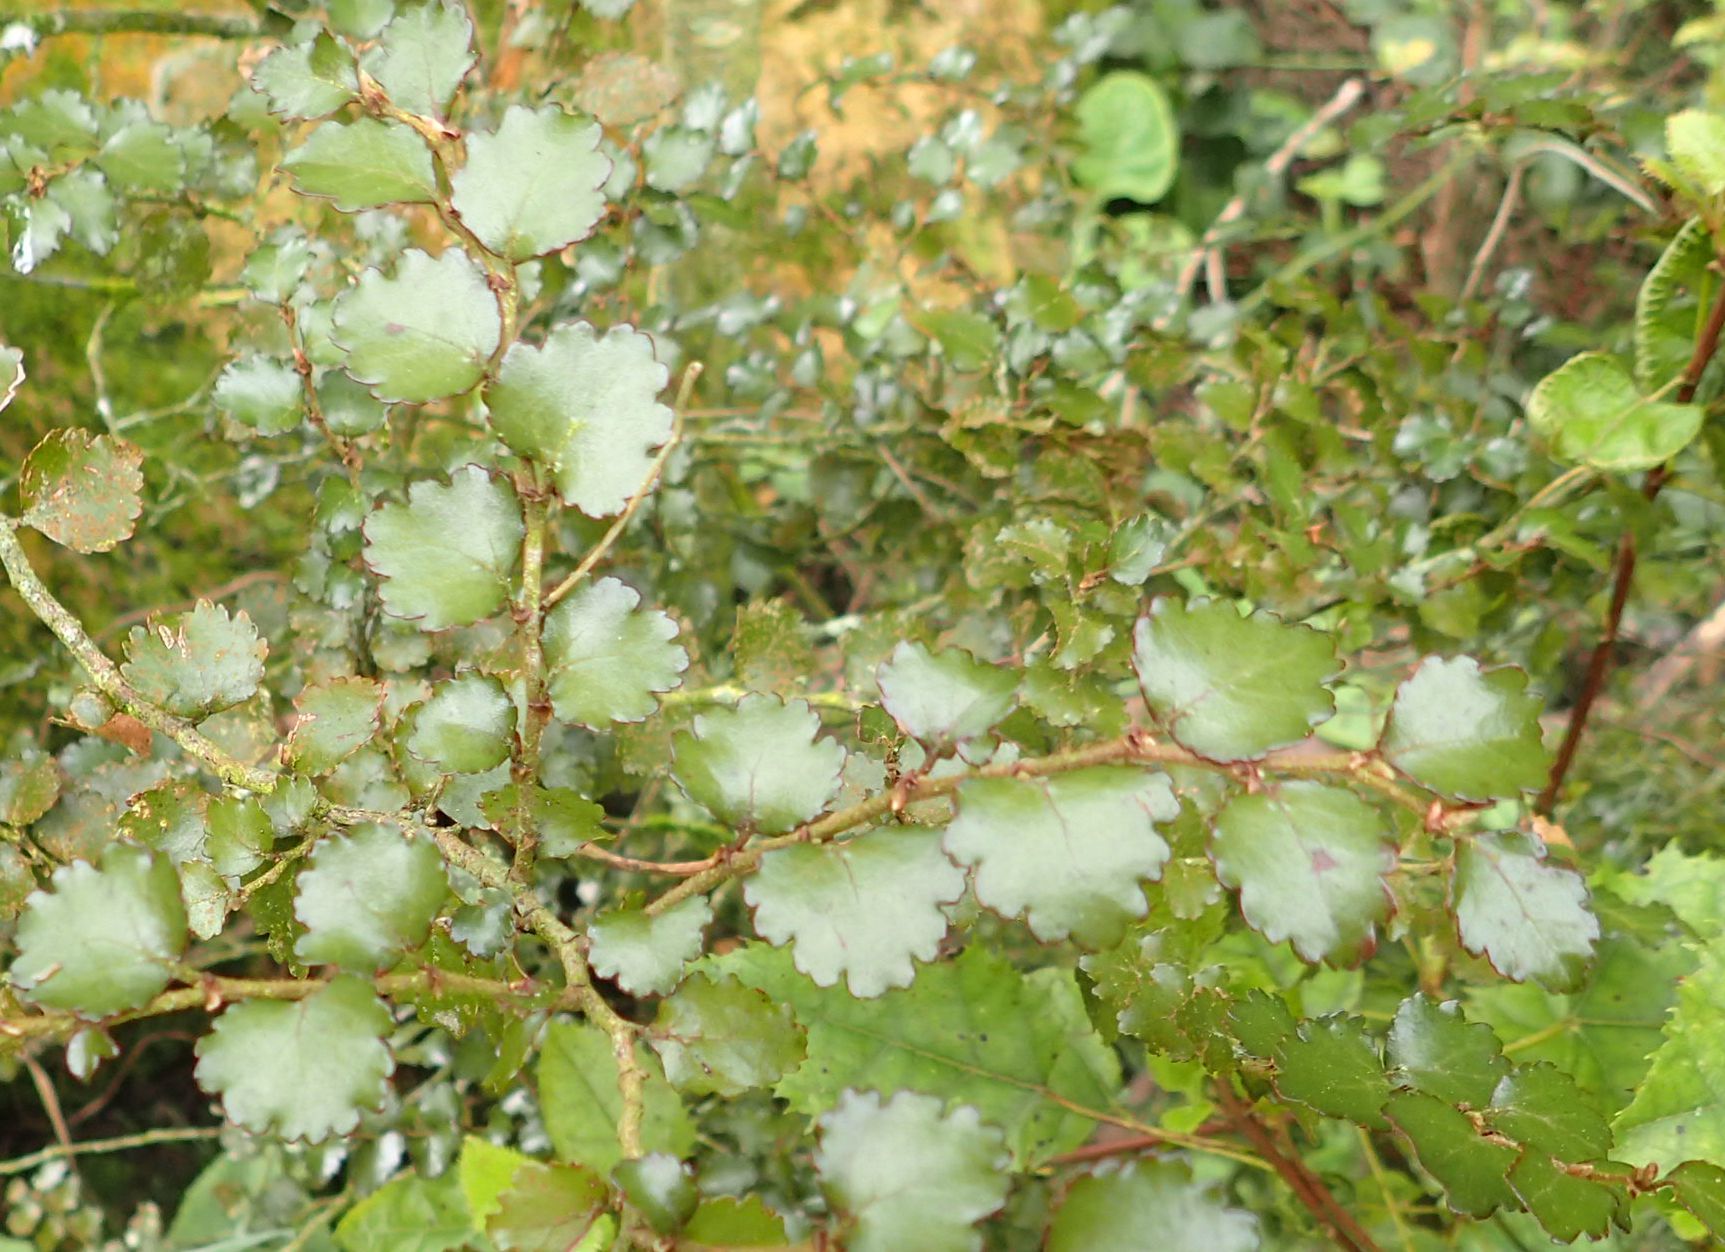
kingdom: Plantae
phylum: Tracheophyta
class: Magnoliopsida
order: Fagales
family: Nothofagaceae
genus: Nothofagus
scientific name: Nothofagus menziesii
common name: Silver beech
